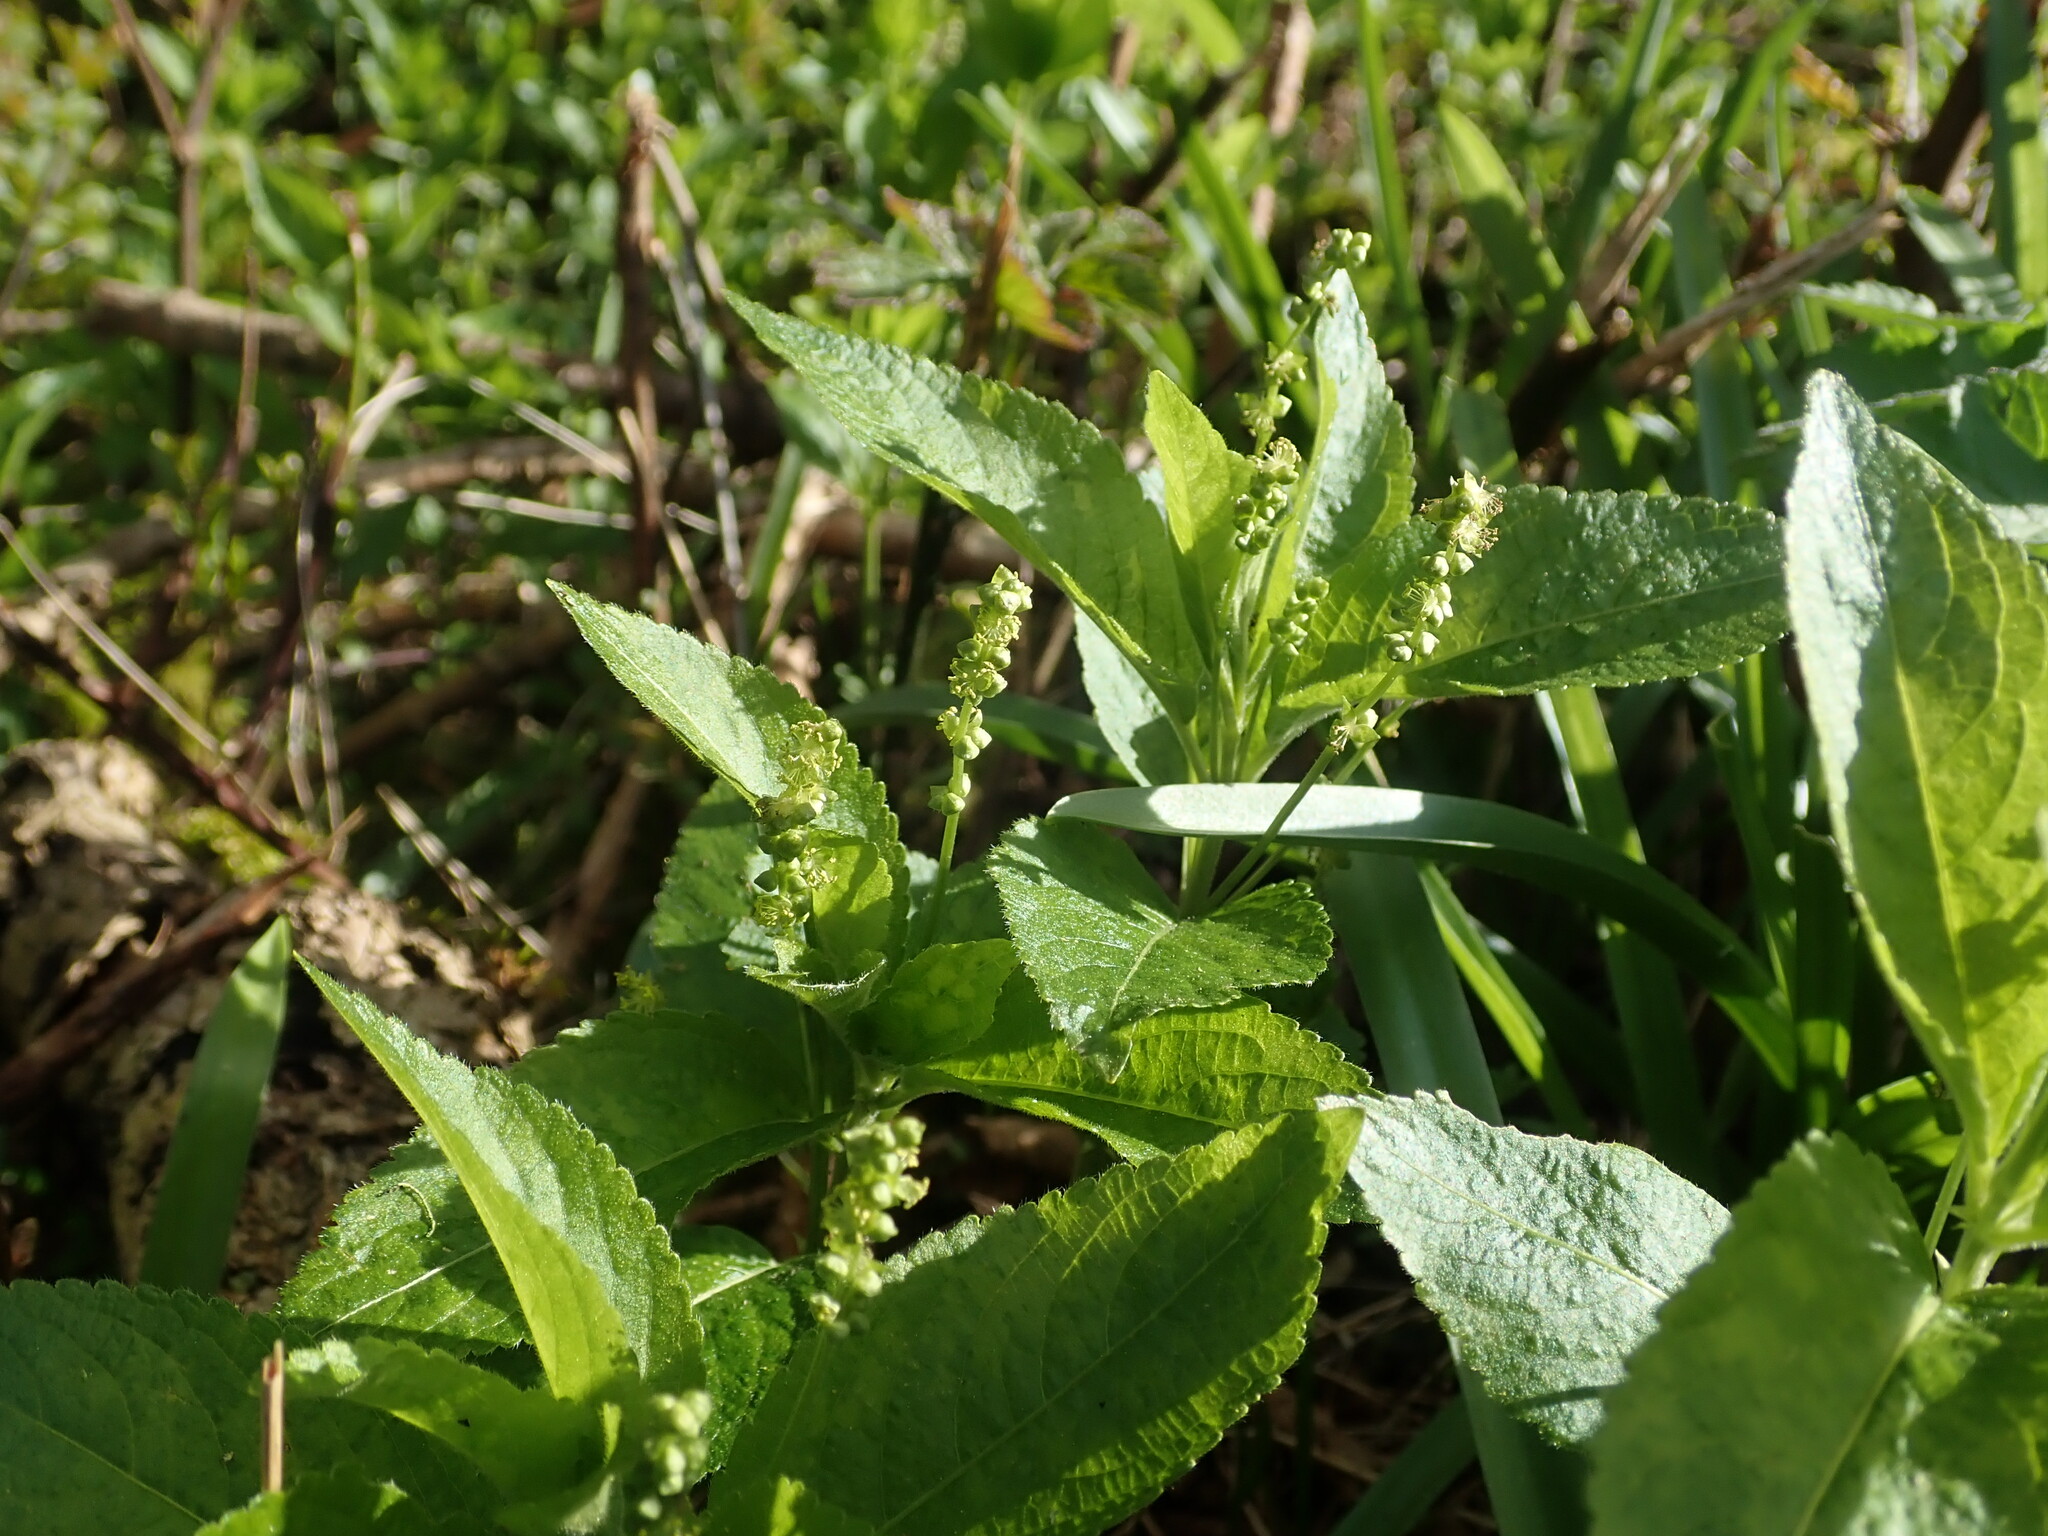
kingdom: Plantae
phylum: Tracheophyta
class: Magnoliopsida
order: Malpighiales
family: Euphorbiaceae
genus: Mercurialis
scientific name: Mercurialis perennis
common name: Dog mercury
